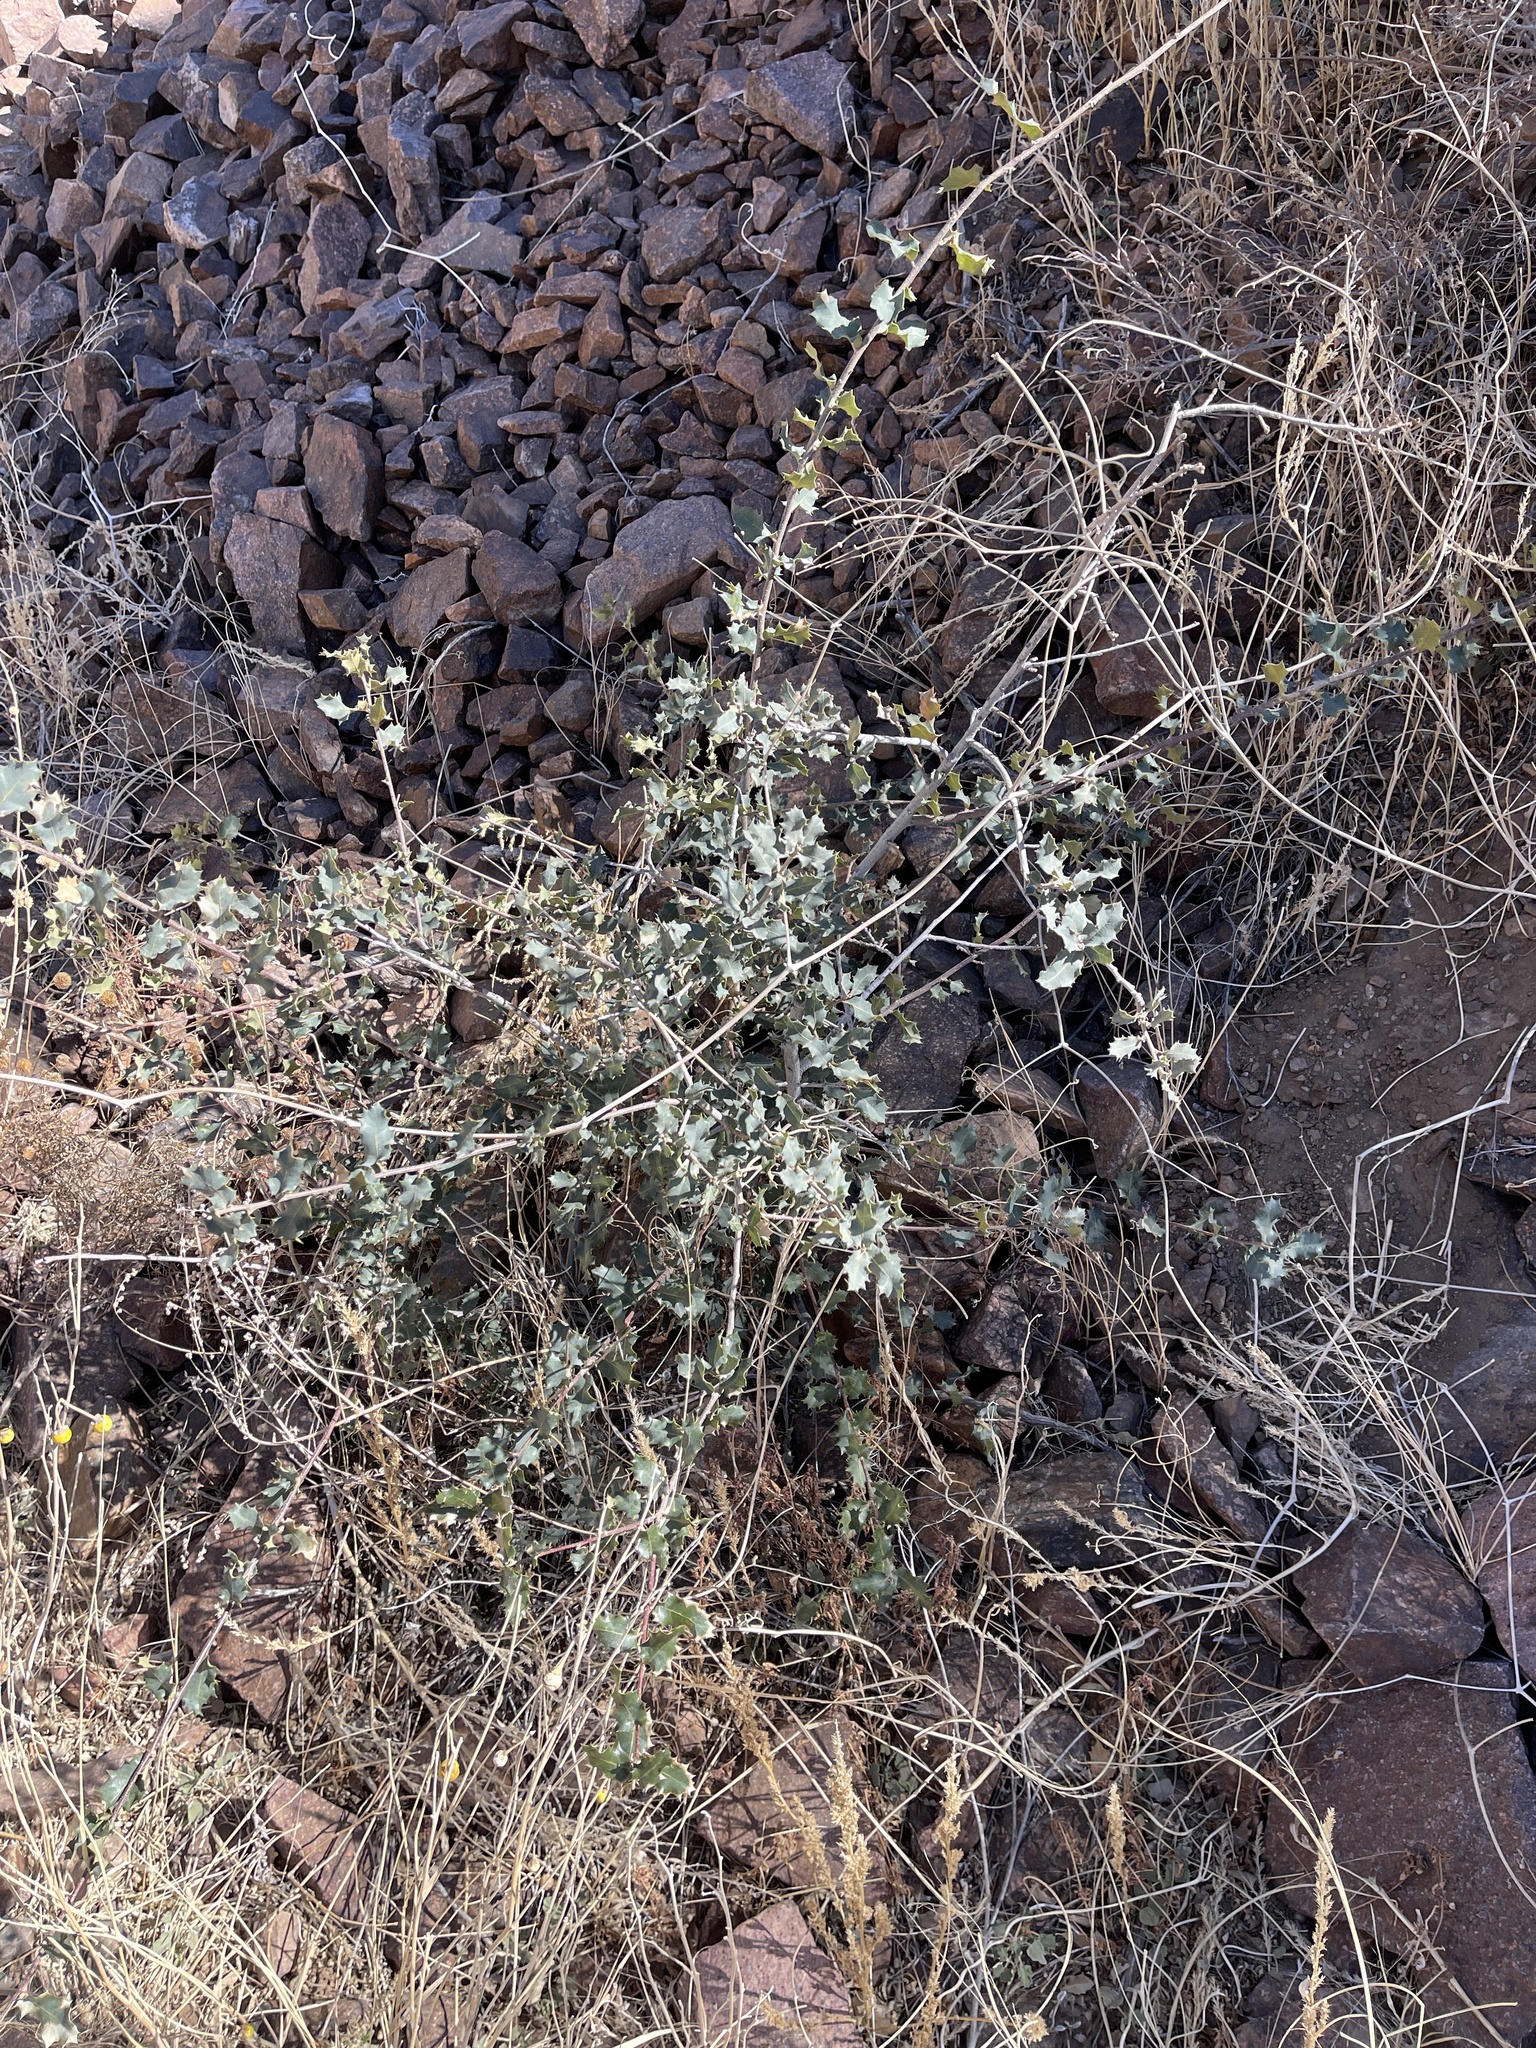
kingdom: Plantae
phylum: Tracheophyta
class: Magnoliopsida
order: Fagales
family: Fagaceae
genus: Quercus
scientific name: Quercus turbinella
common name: Sonoran scrub oak
